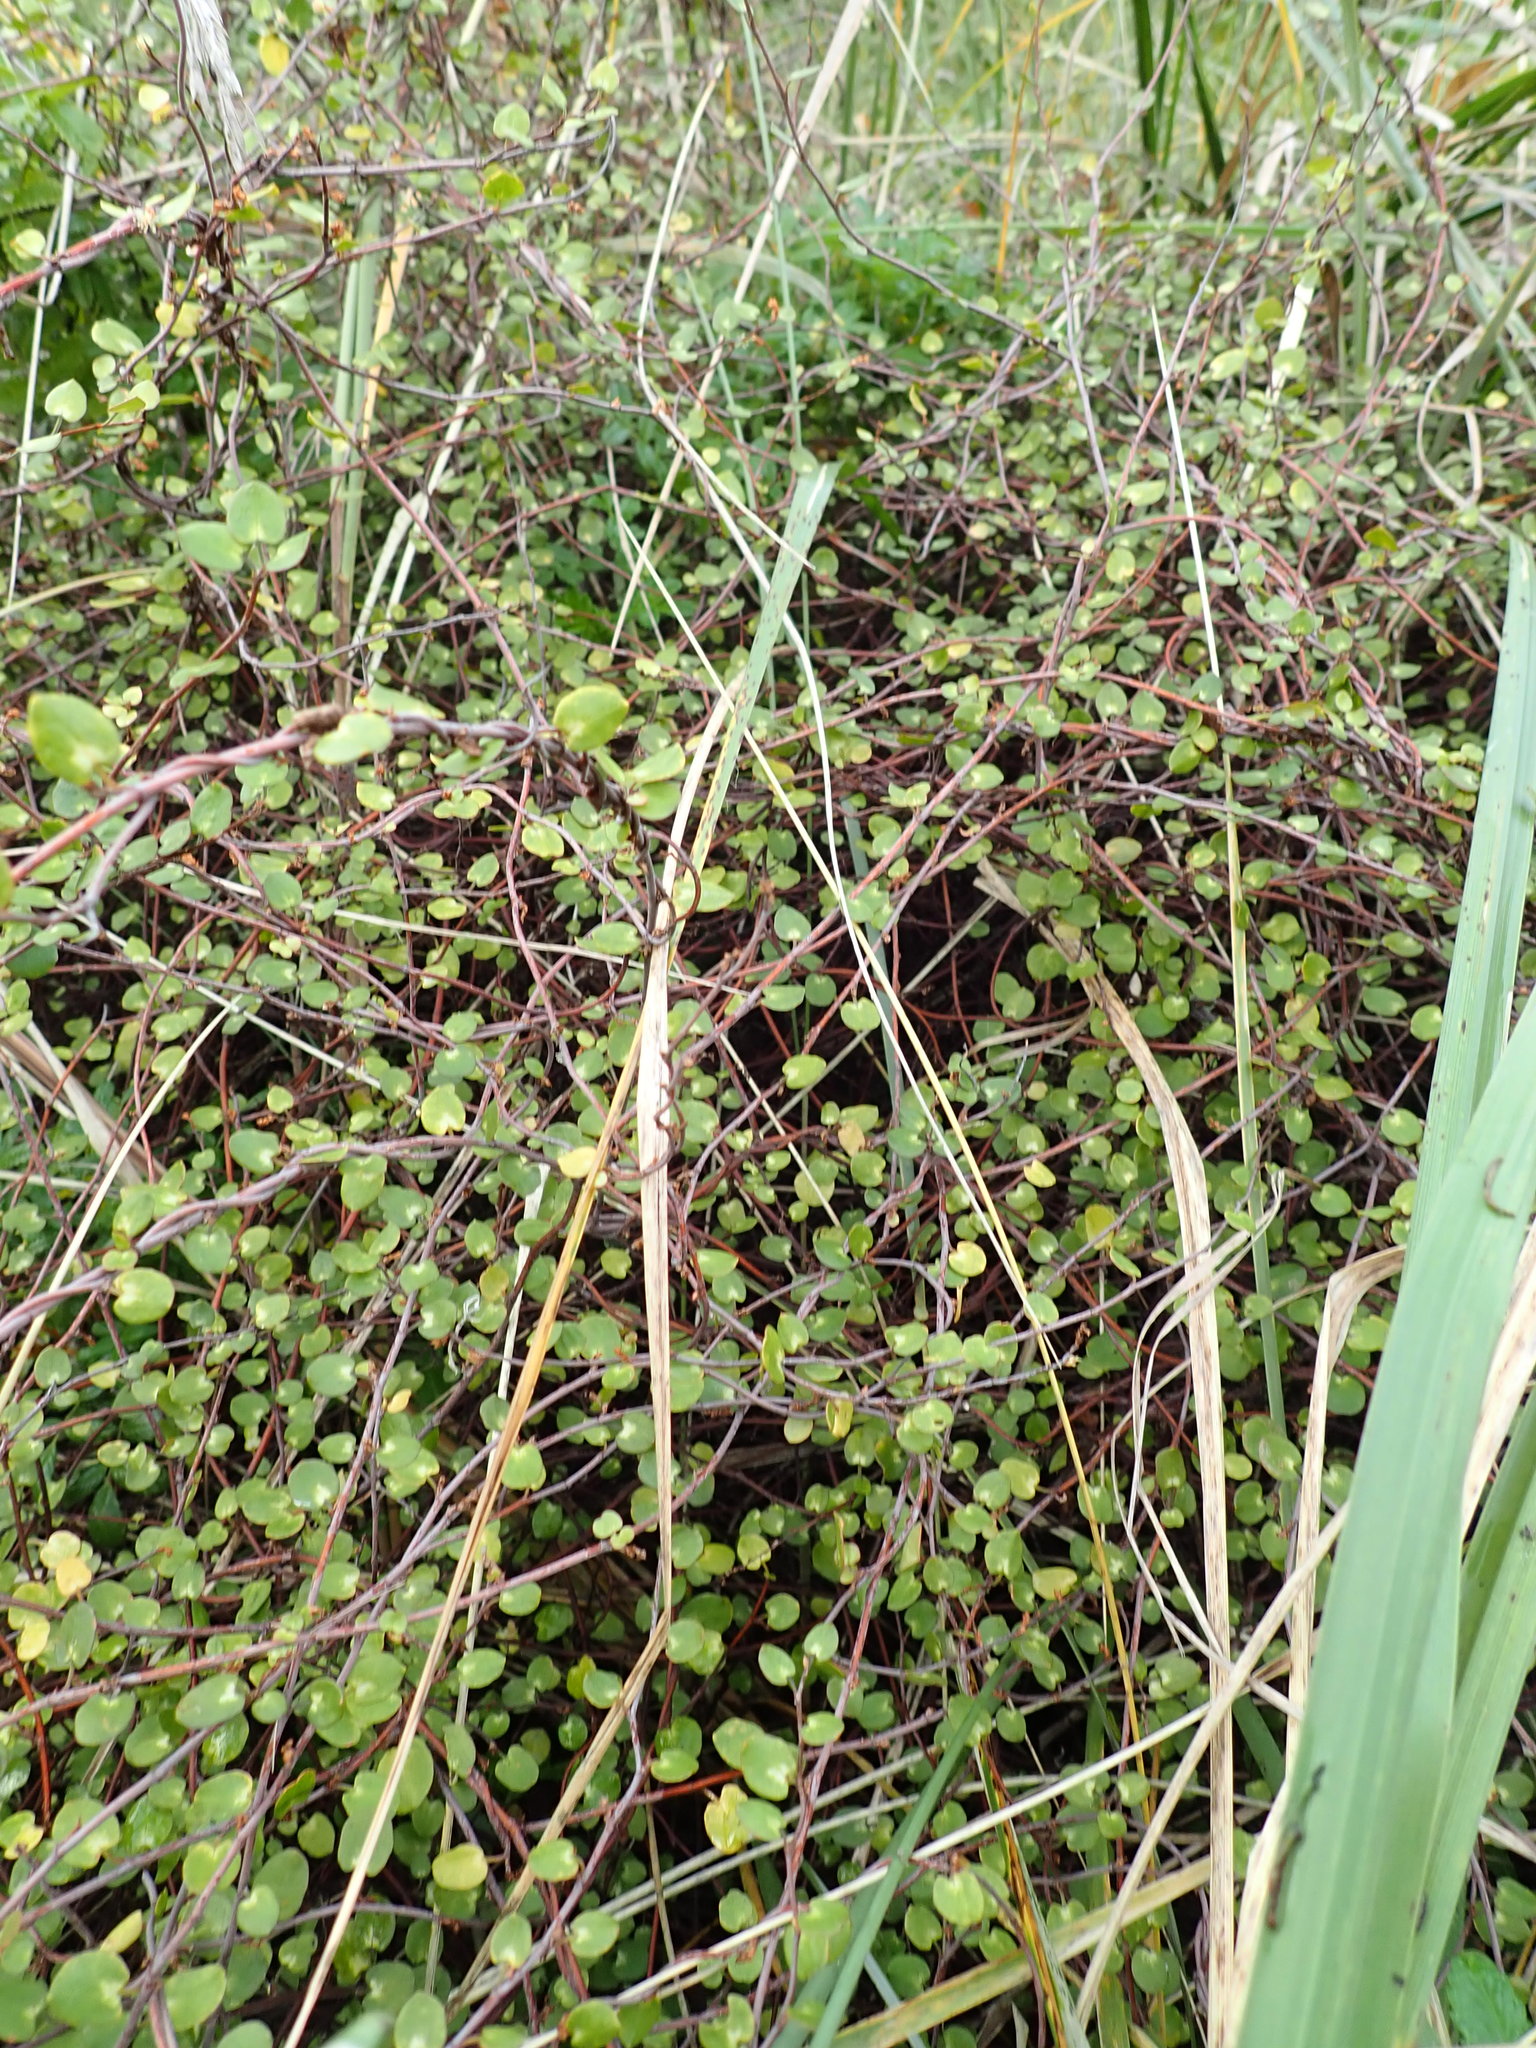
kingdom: Plantae
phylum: Tracheophyta
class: Magnoliopsida
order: Caryophyllales
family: Polygonaceae
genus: Muehlenbeckia
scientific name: Muehlenbeckia complexa
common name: Wireplant
